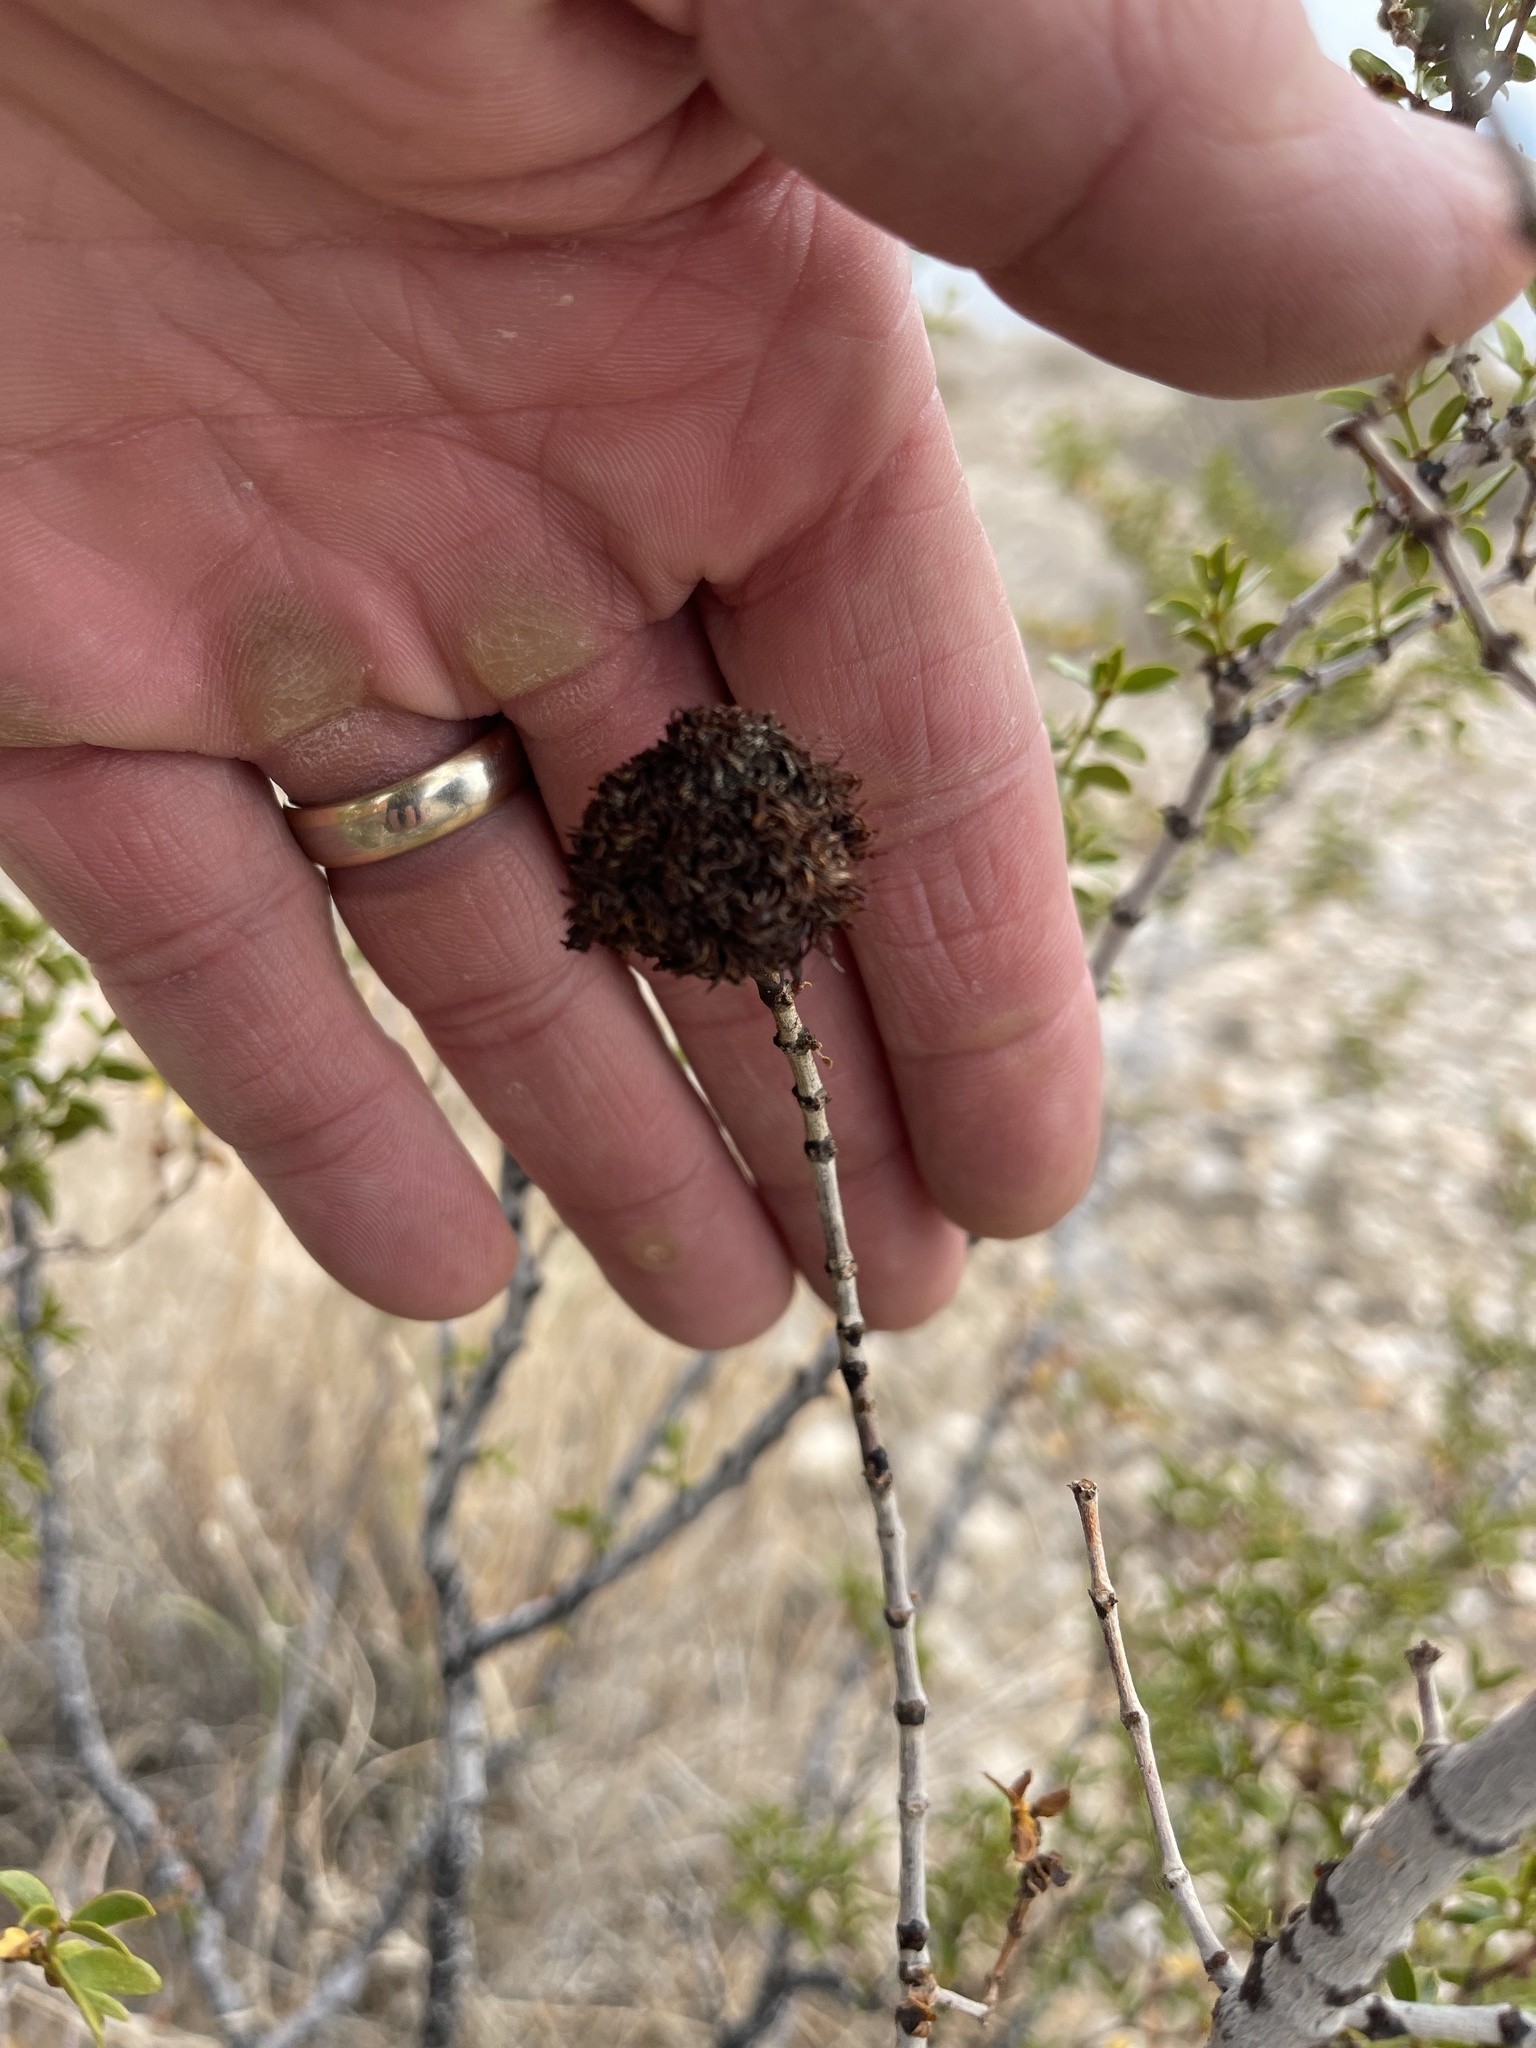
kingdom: Animalia
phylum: Arthropoda
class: Insecta
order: Diptera
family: Cecidomyiidae
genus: Asphondylia
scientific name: Asphondylia auripila
